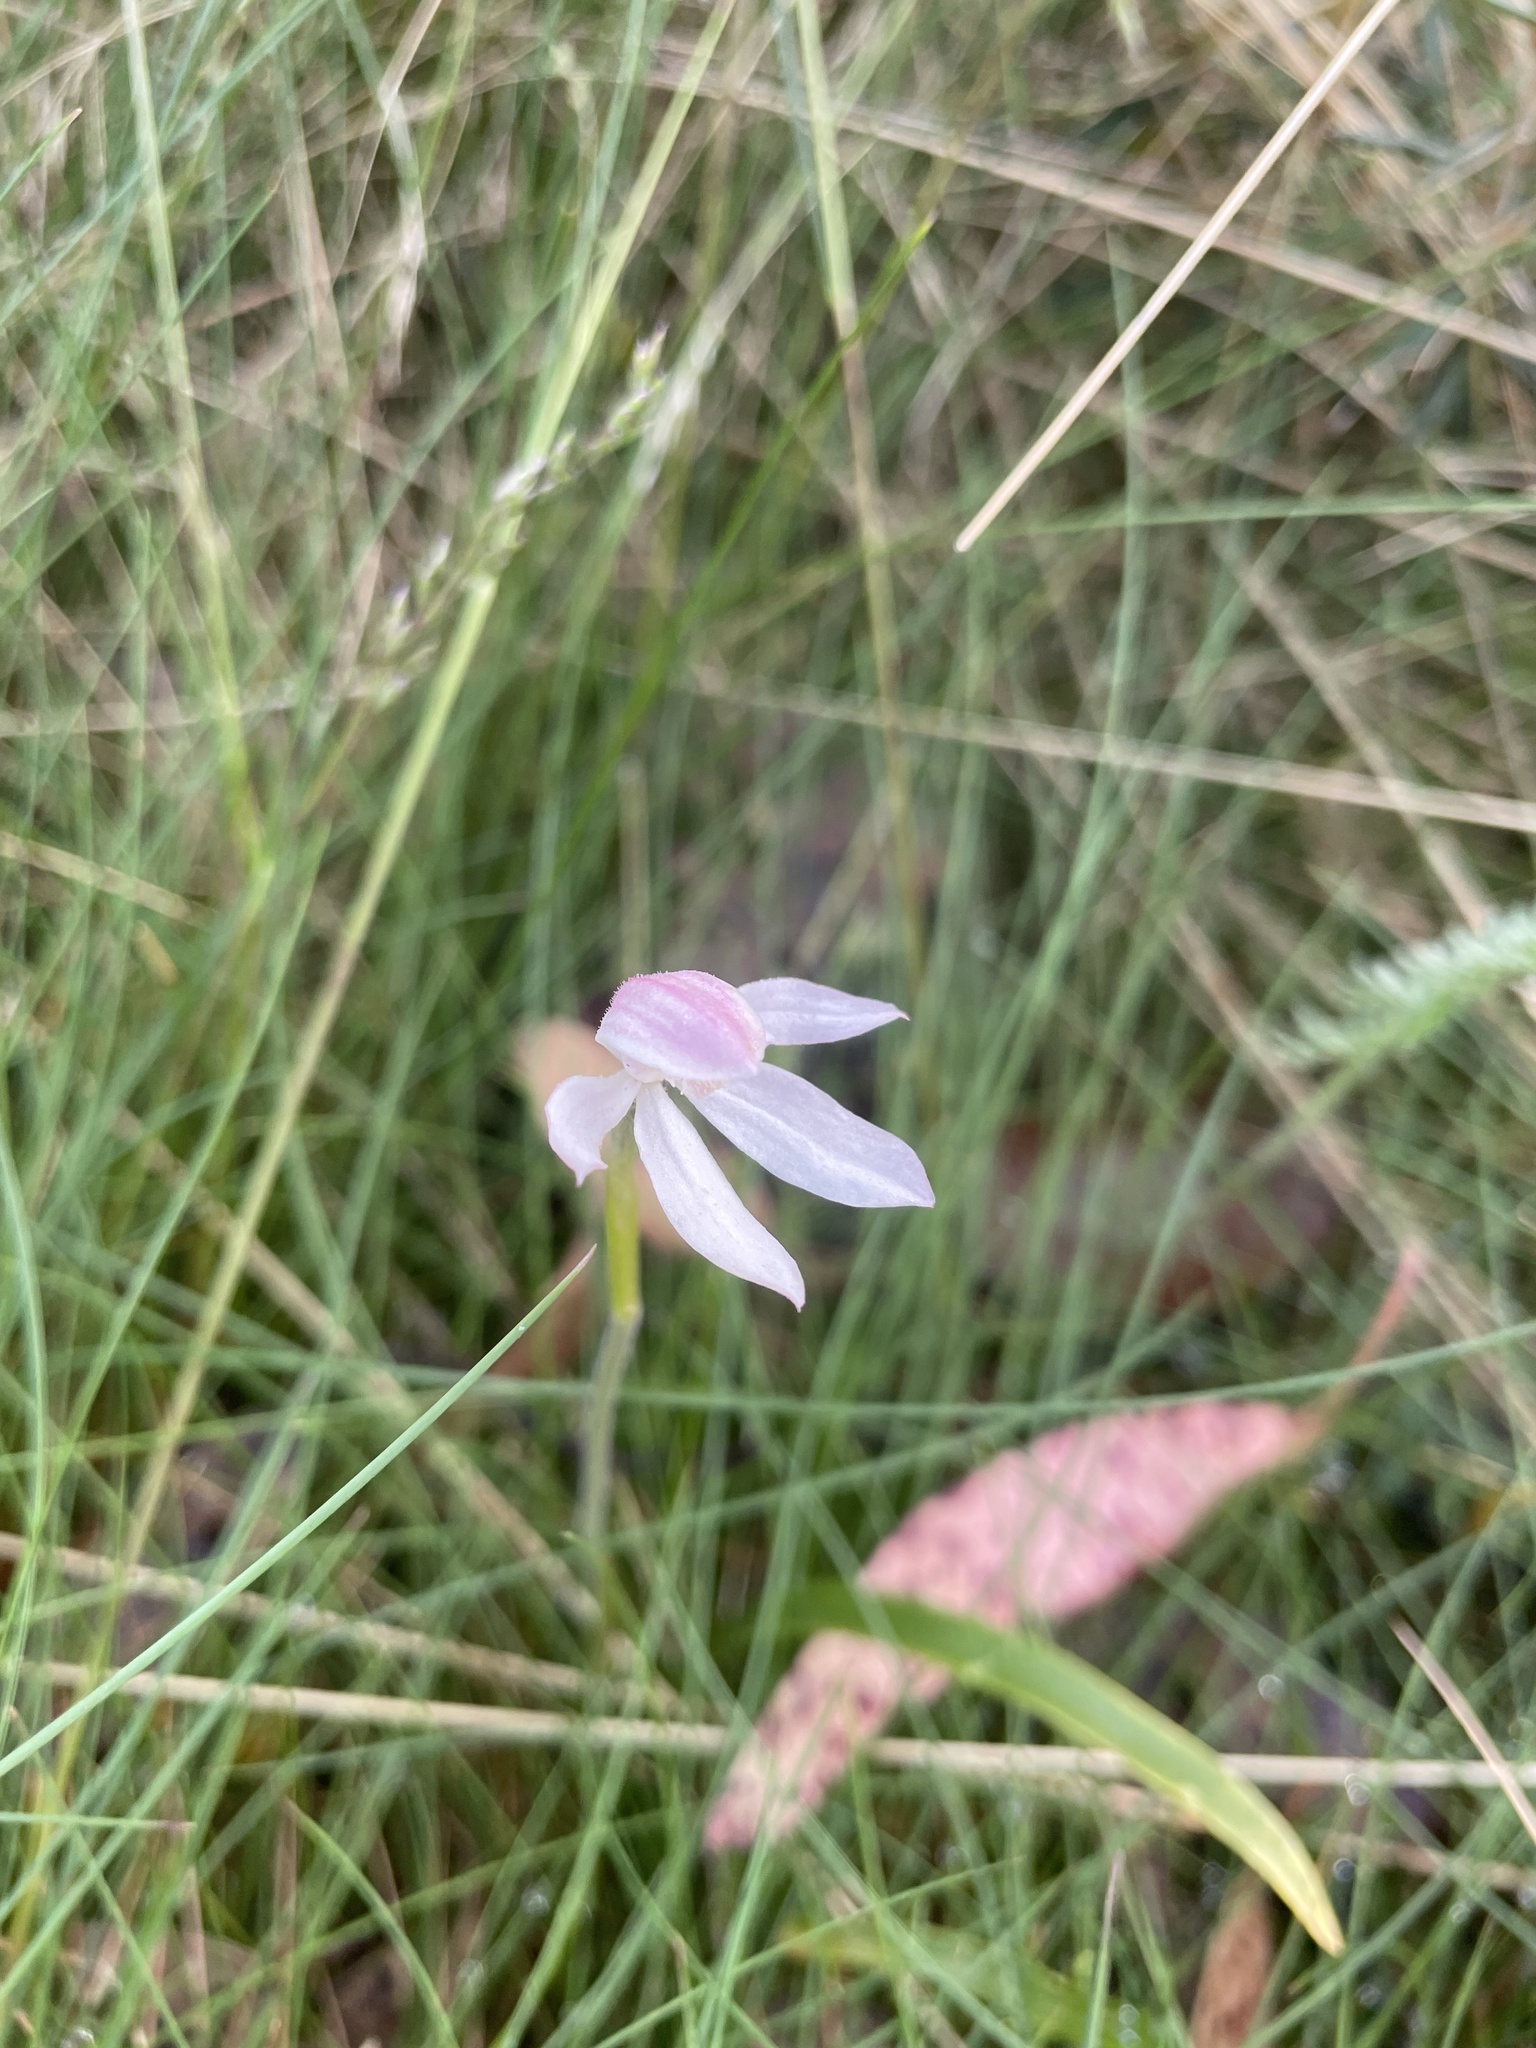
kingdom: Plantae
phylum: Tracheophyta
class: Liliopsida
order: Asparagales
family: Orchidaceae
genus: Caladenia
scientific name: Caladenia alpina
